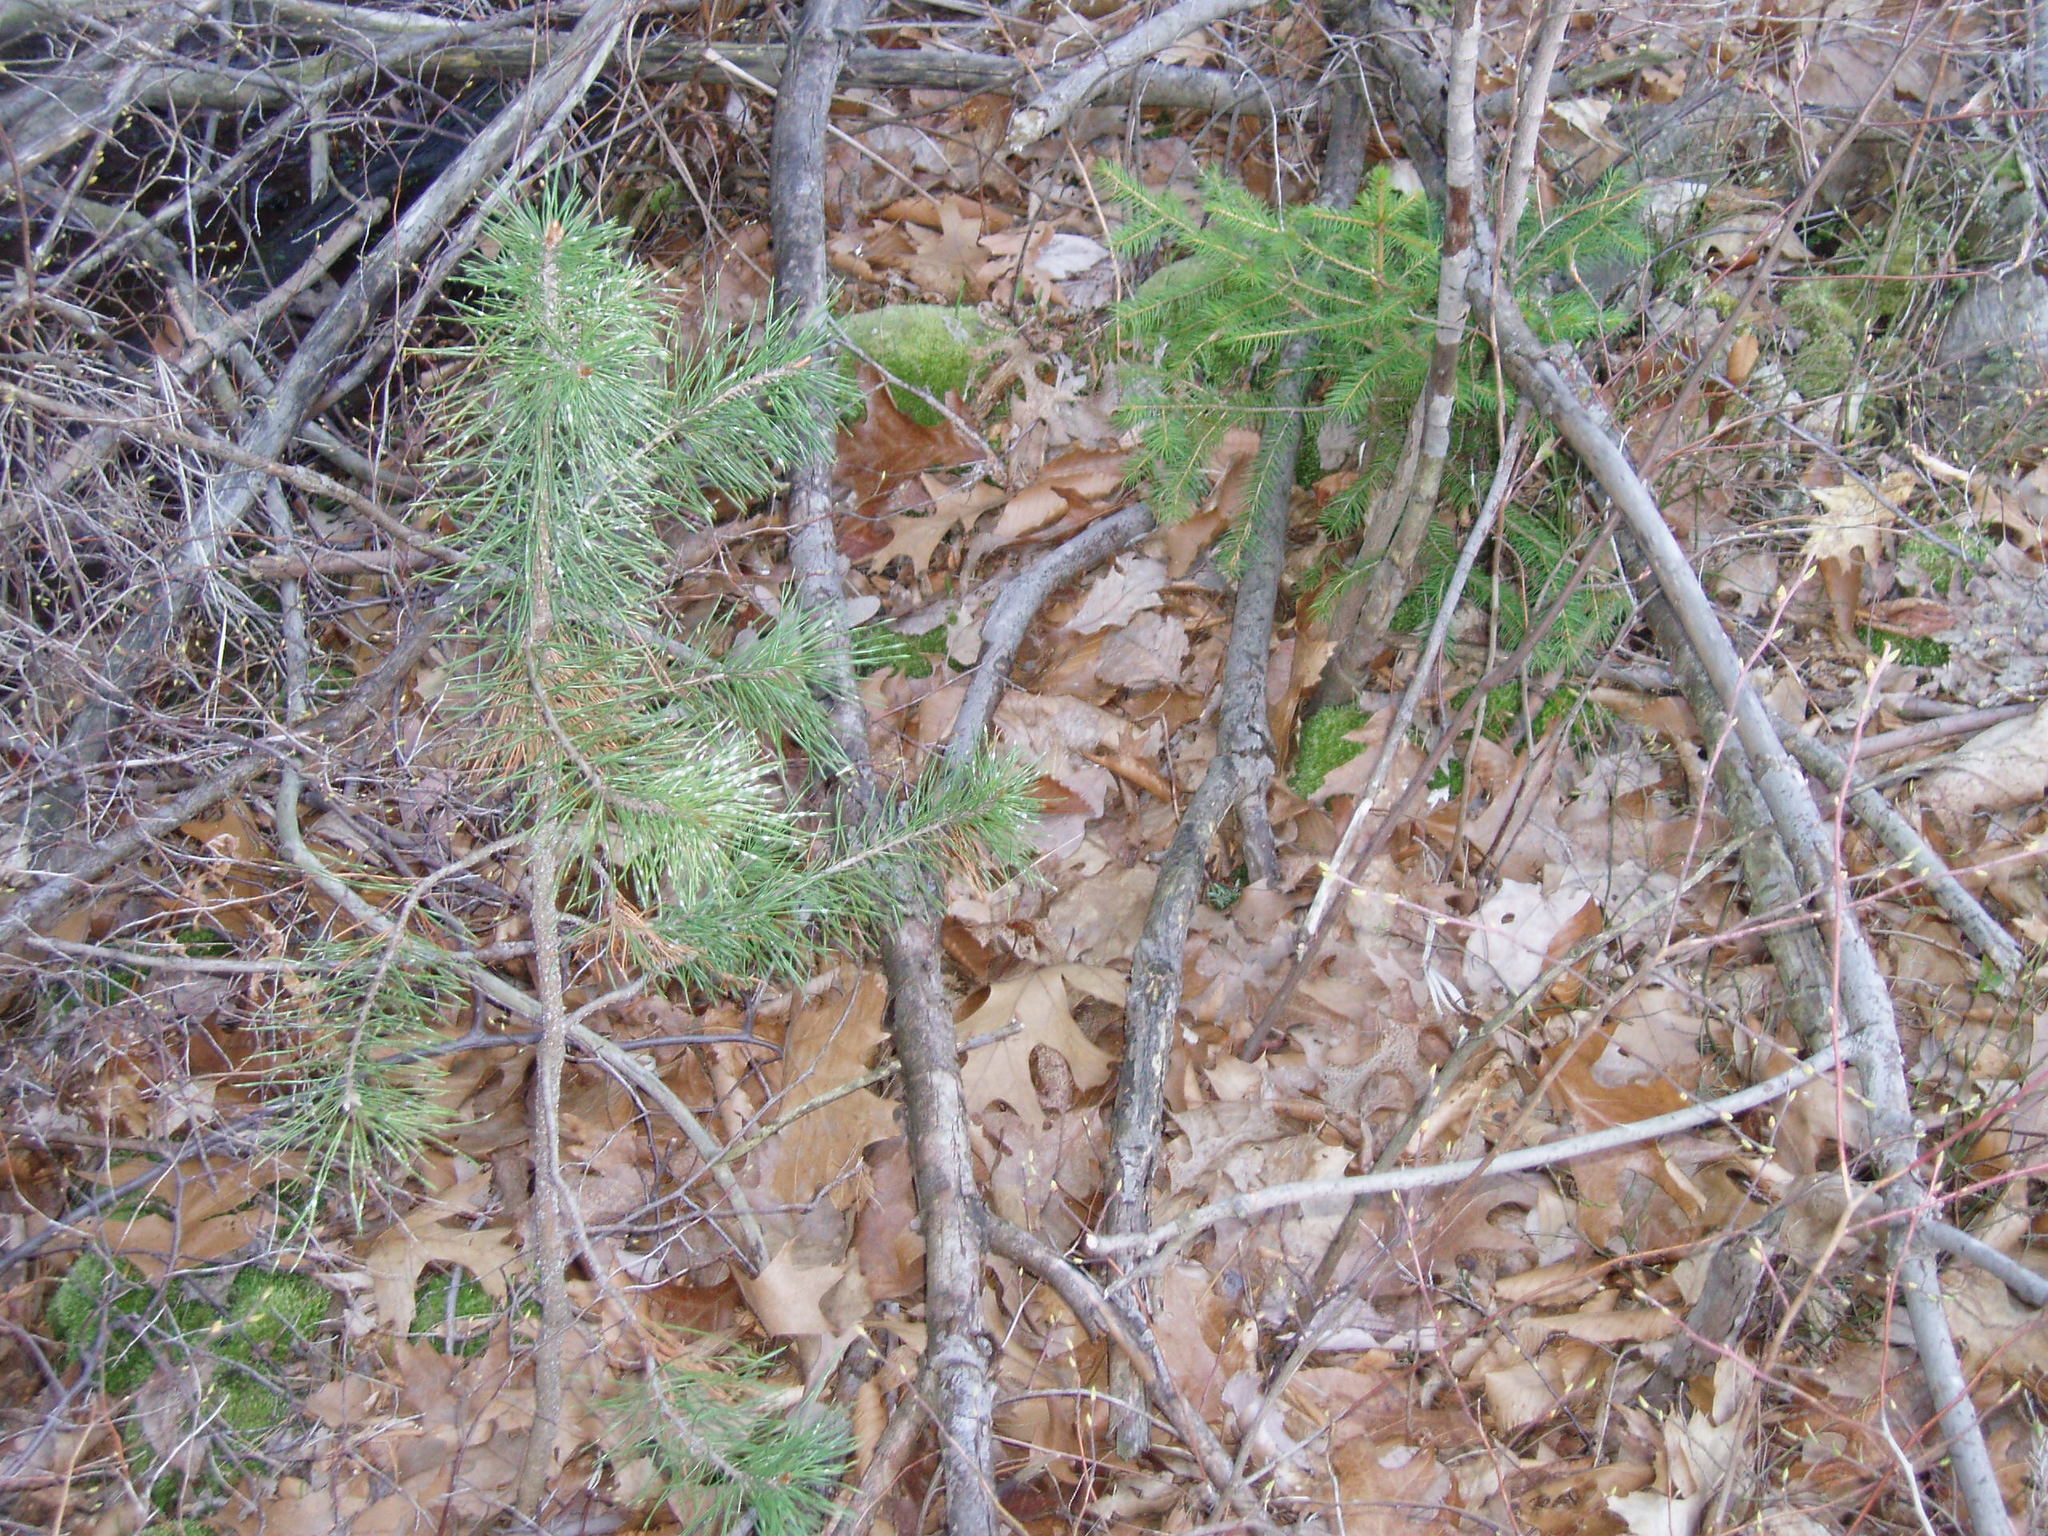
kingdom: Plantae
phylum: Tracheophyta
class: Pinopsida
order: Pinales
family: Pinaceae
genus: Picea
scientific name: Picea abies
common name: Norway spruce
